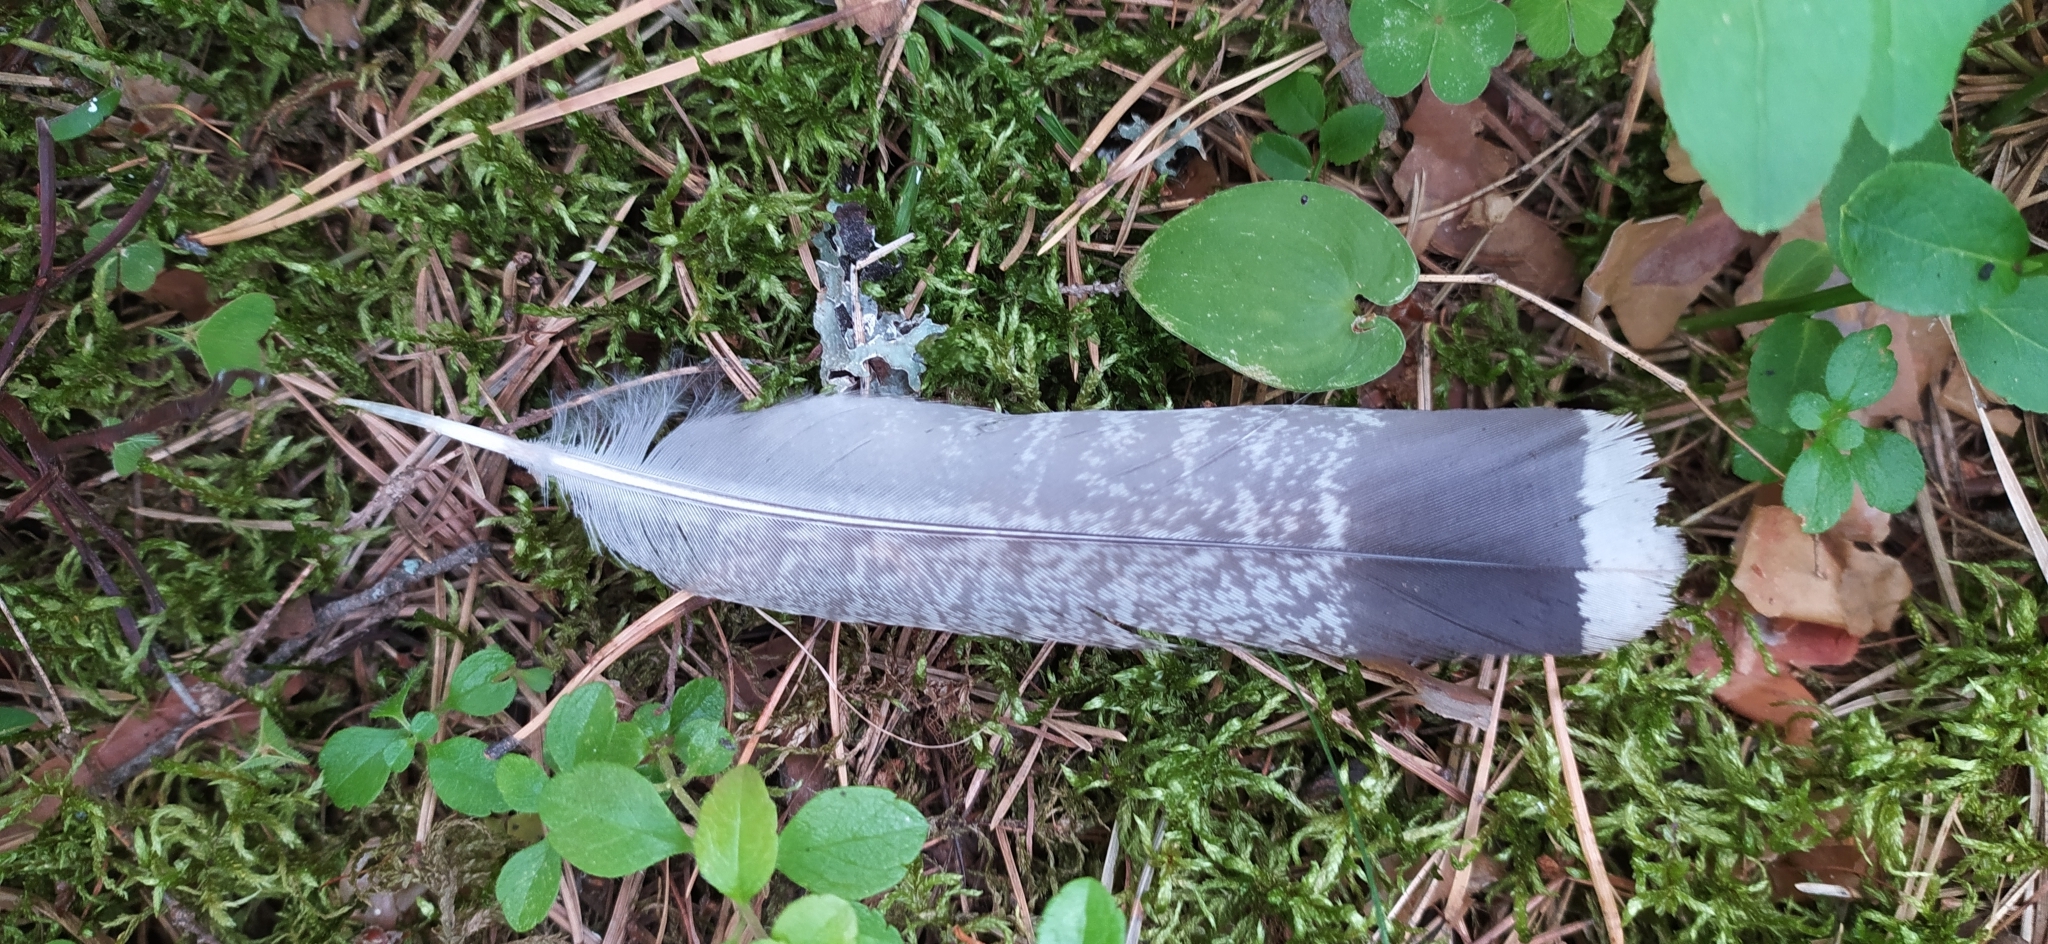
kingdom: Animalia
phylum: Chordata
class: Aves
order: Galliformes
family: Phasianidae
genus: Tetrastes
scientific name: Tetrastes bonasia
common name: Hazel grouse
